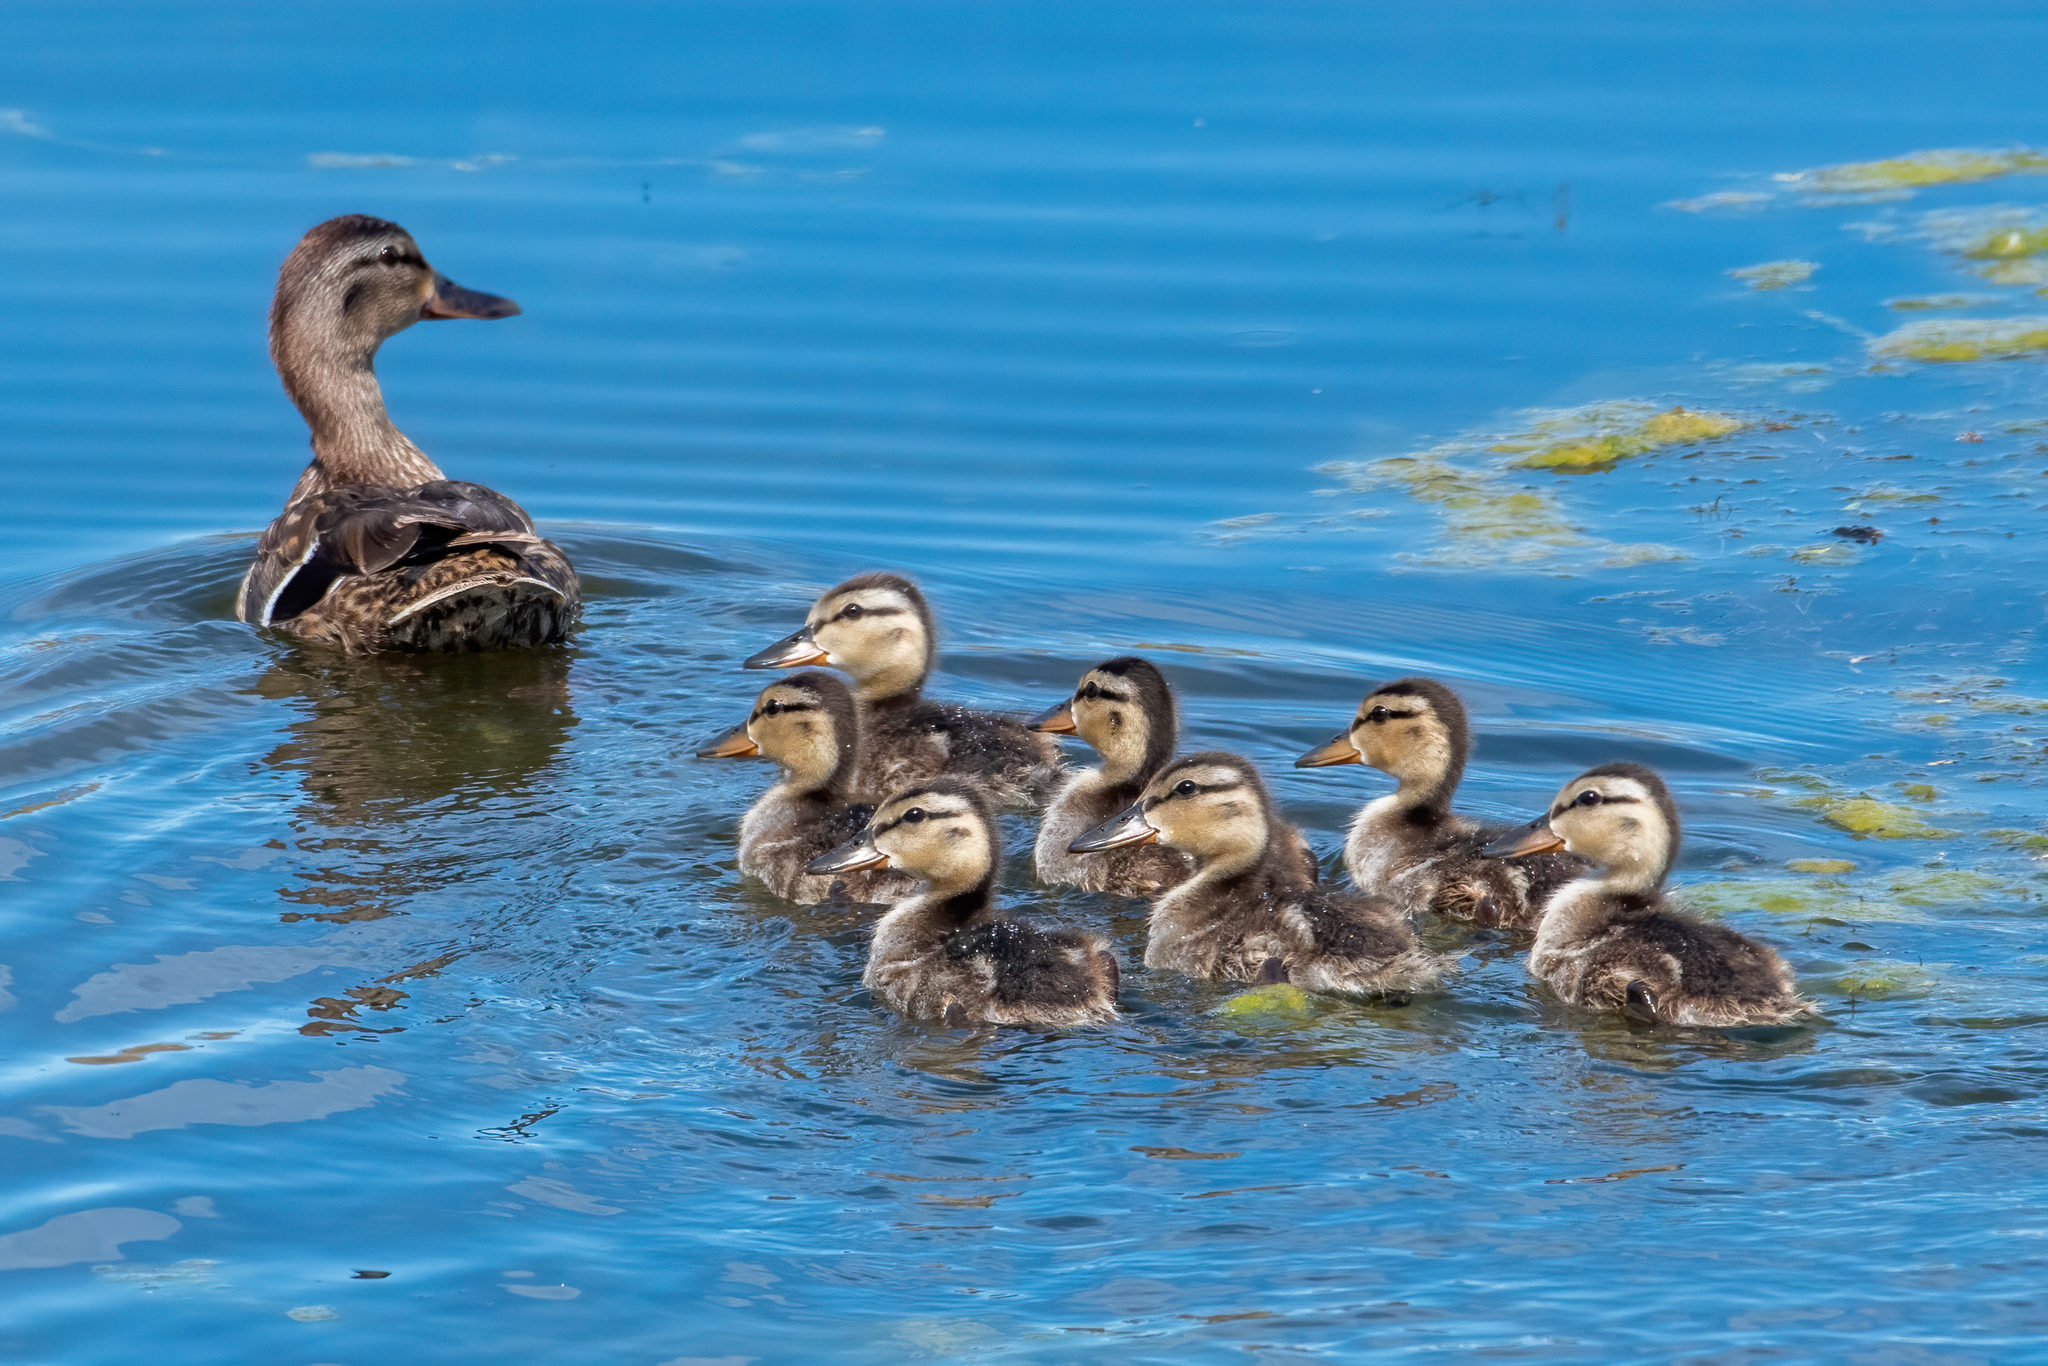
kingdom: Animalia
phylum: Chordata
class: Aves
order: Anseriformes
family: Anatidae
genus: Anas
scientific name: Anas platyrhynchos
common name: Mallard
